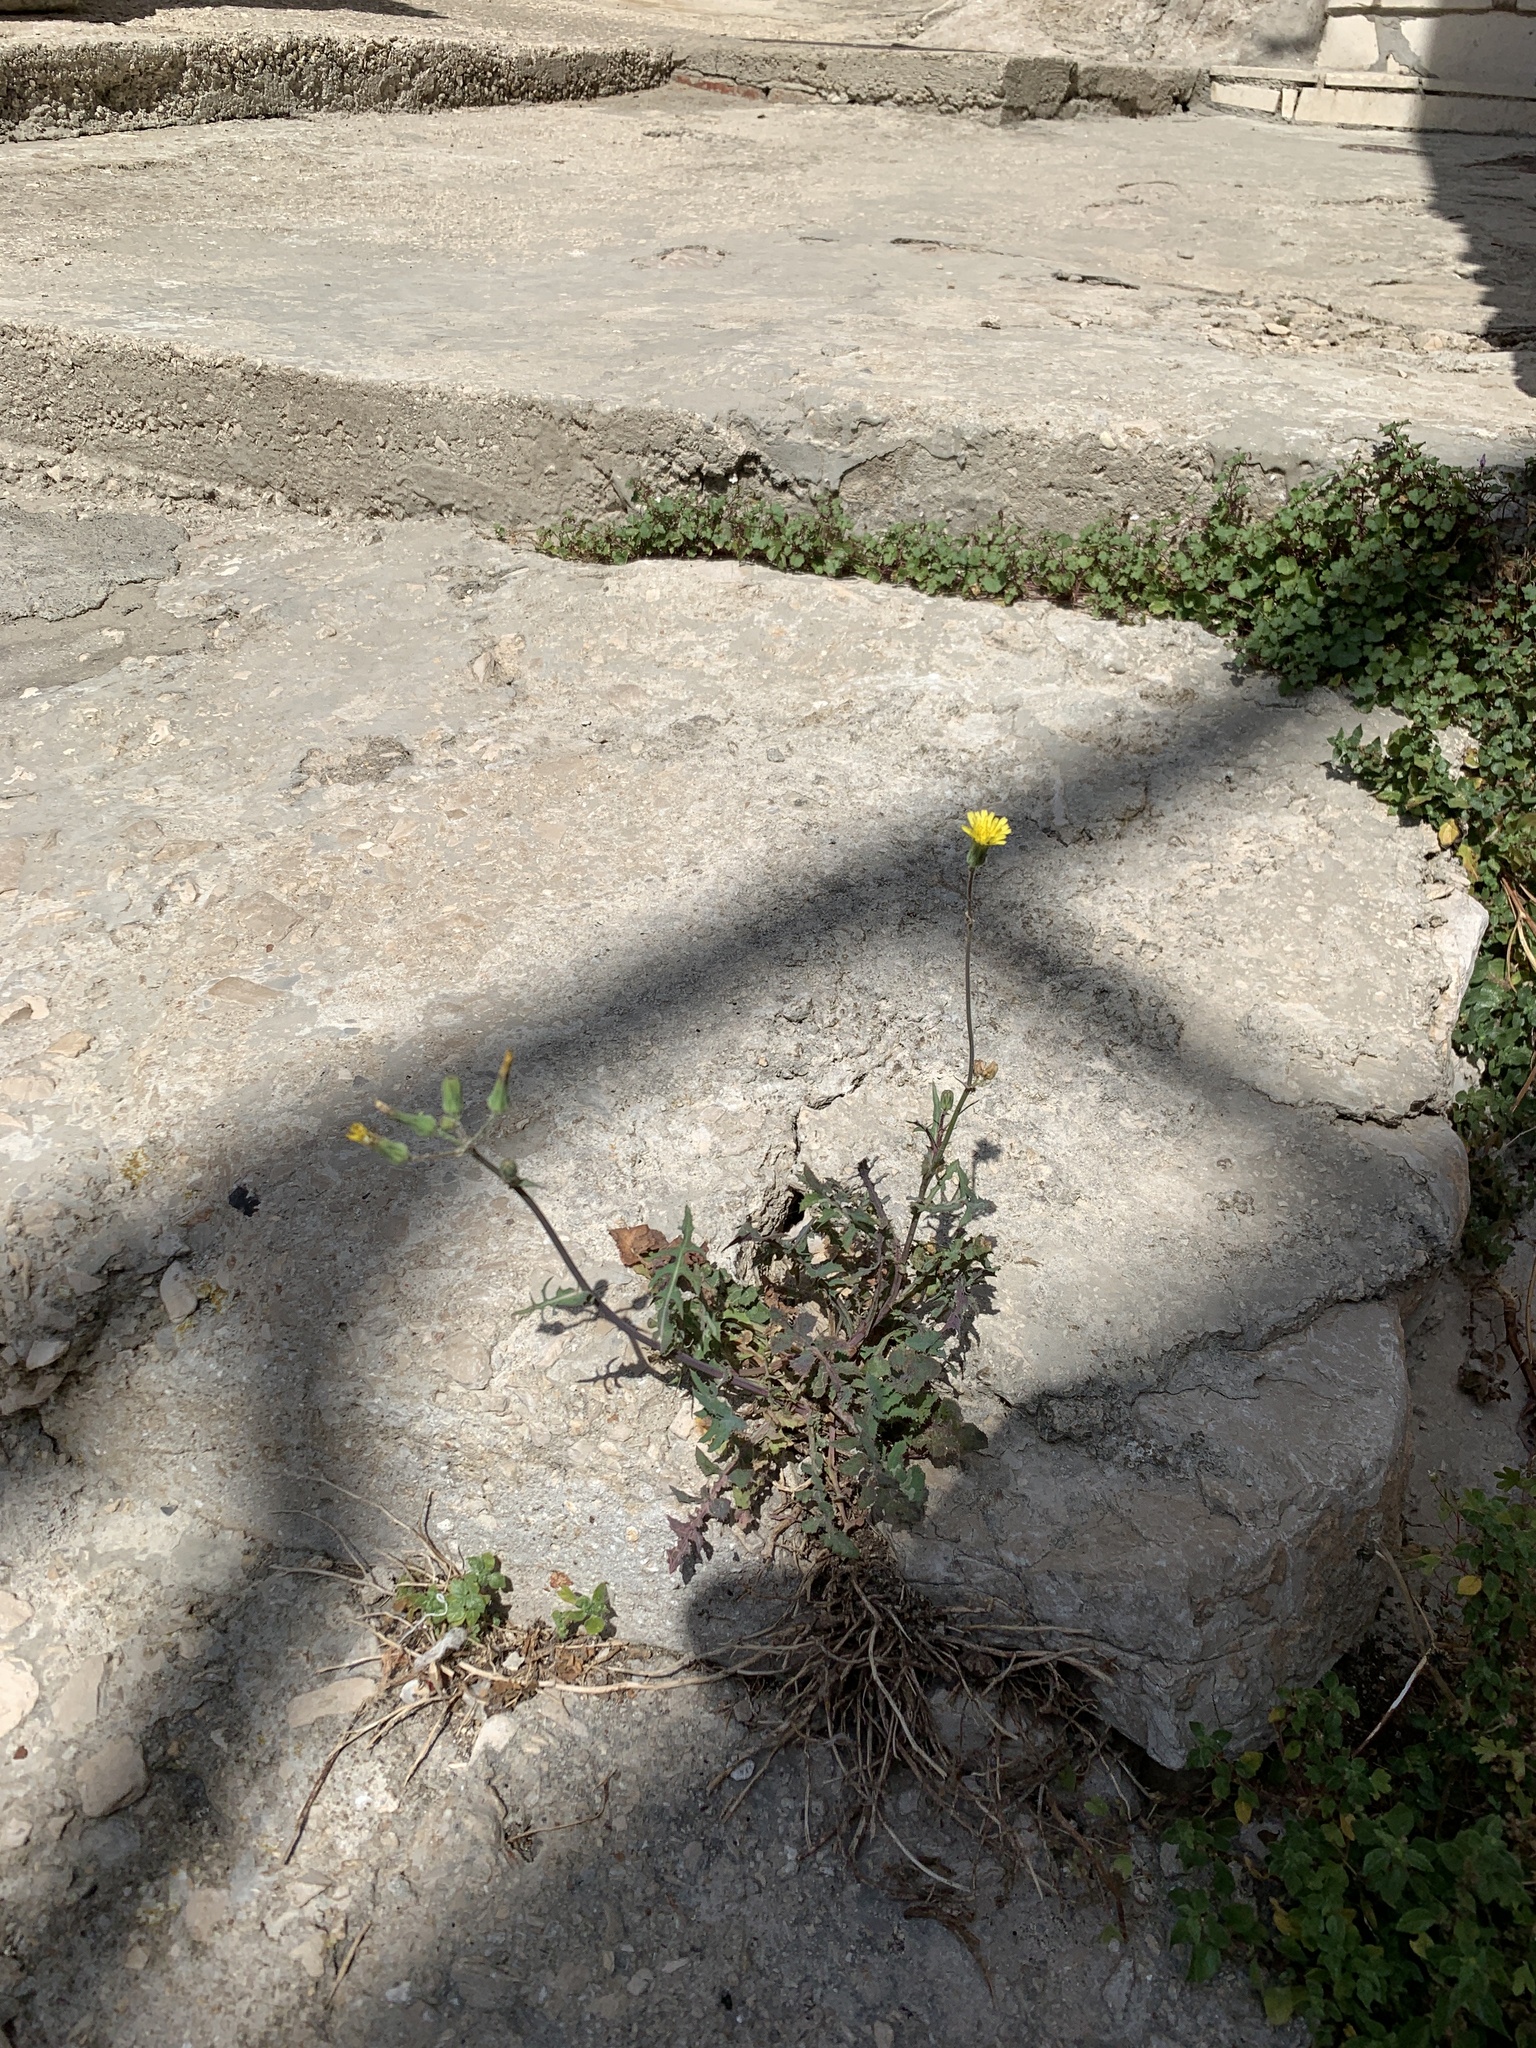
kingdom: Plantae
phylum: Tracheophyta
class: Magnoliopsida
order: Asterales
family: Asteraceae
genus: Sonchus
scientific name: Sonchus oleraceus
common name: Common sowthistle
